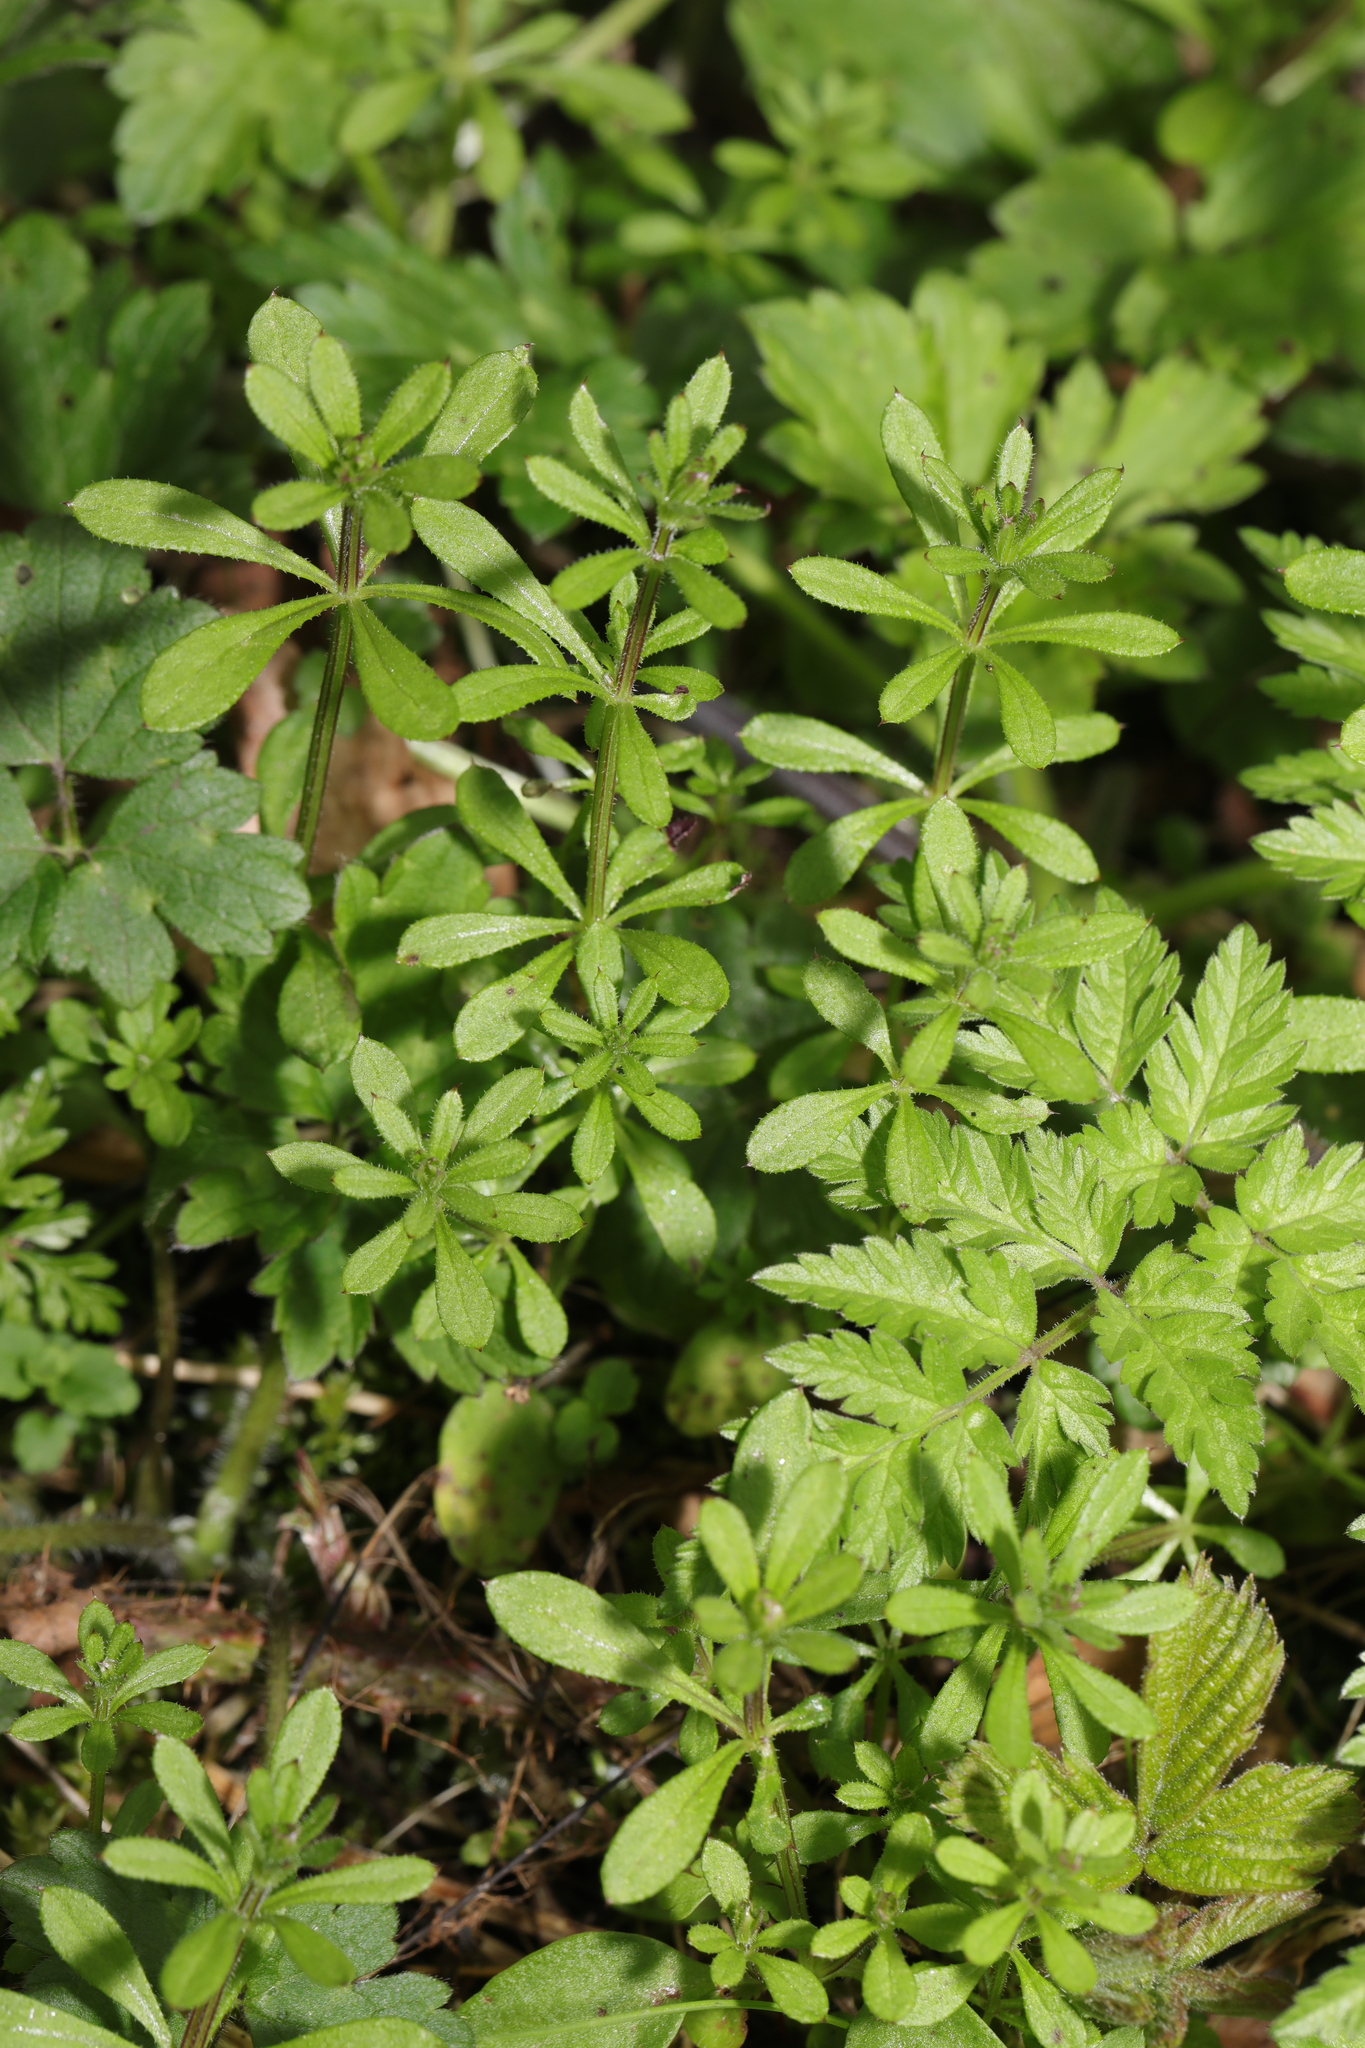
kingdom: Plantae
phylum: Tracheophyta
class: Magnoliopsida
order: Gentianales
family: Rubiaceae
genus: Galium
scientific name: Galium aparine
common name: Cleavers
